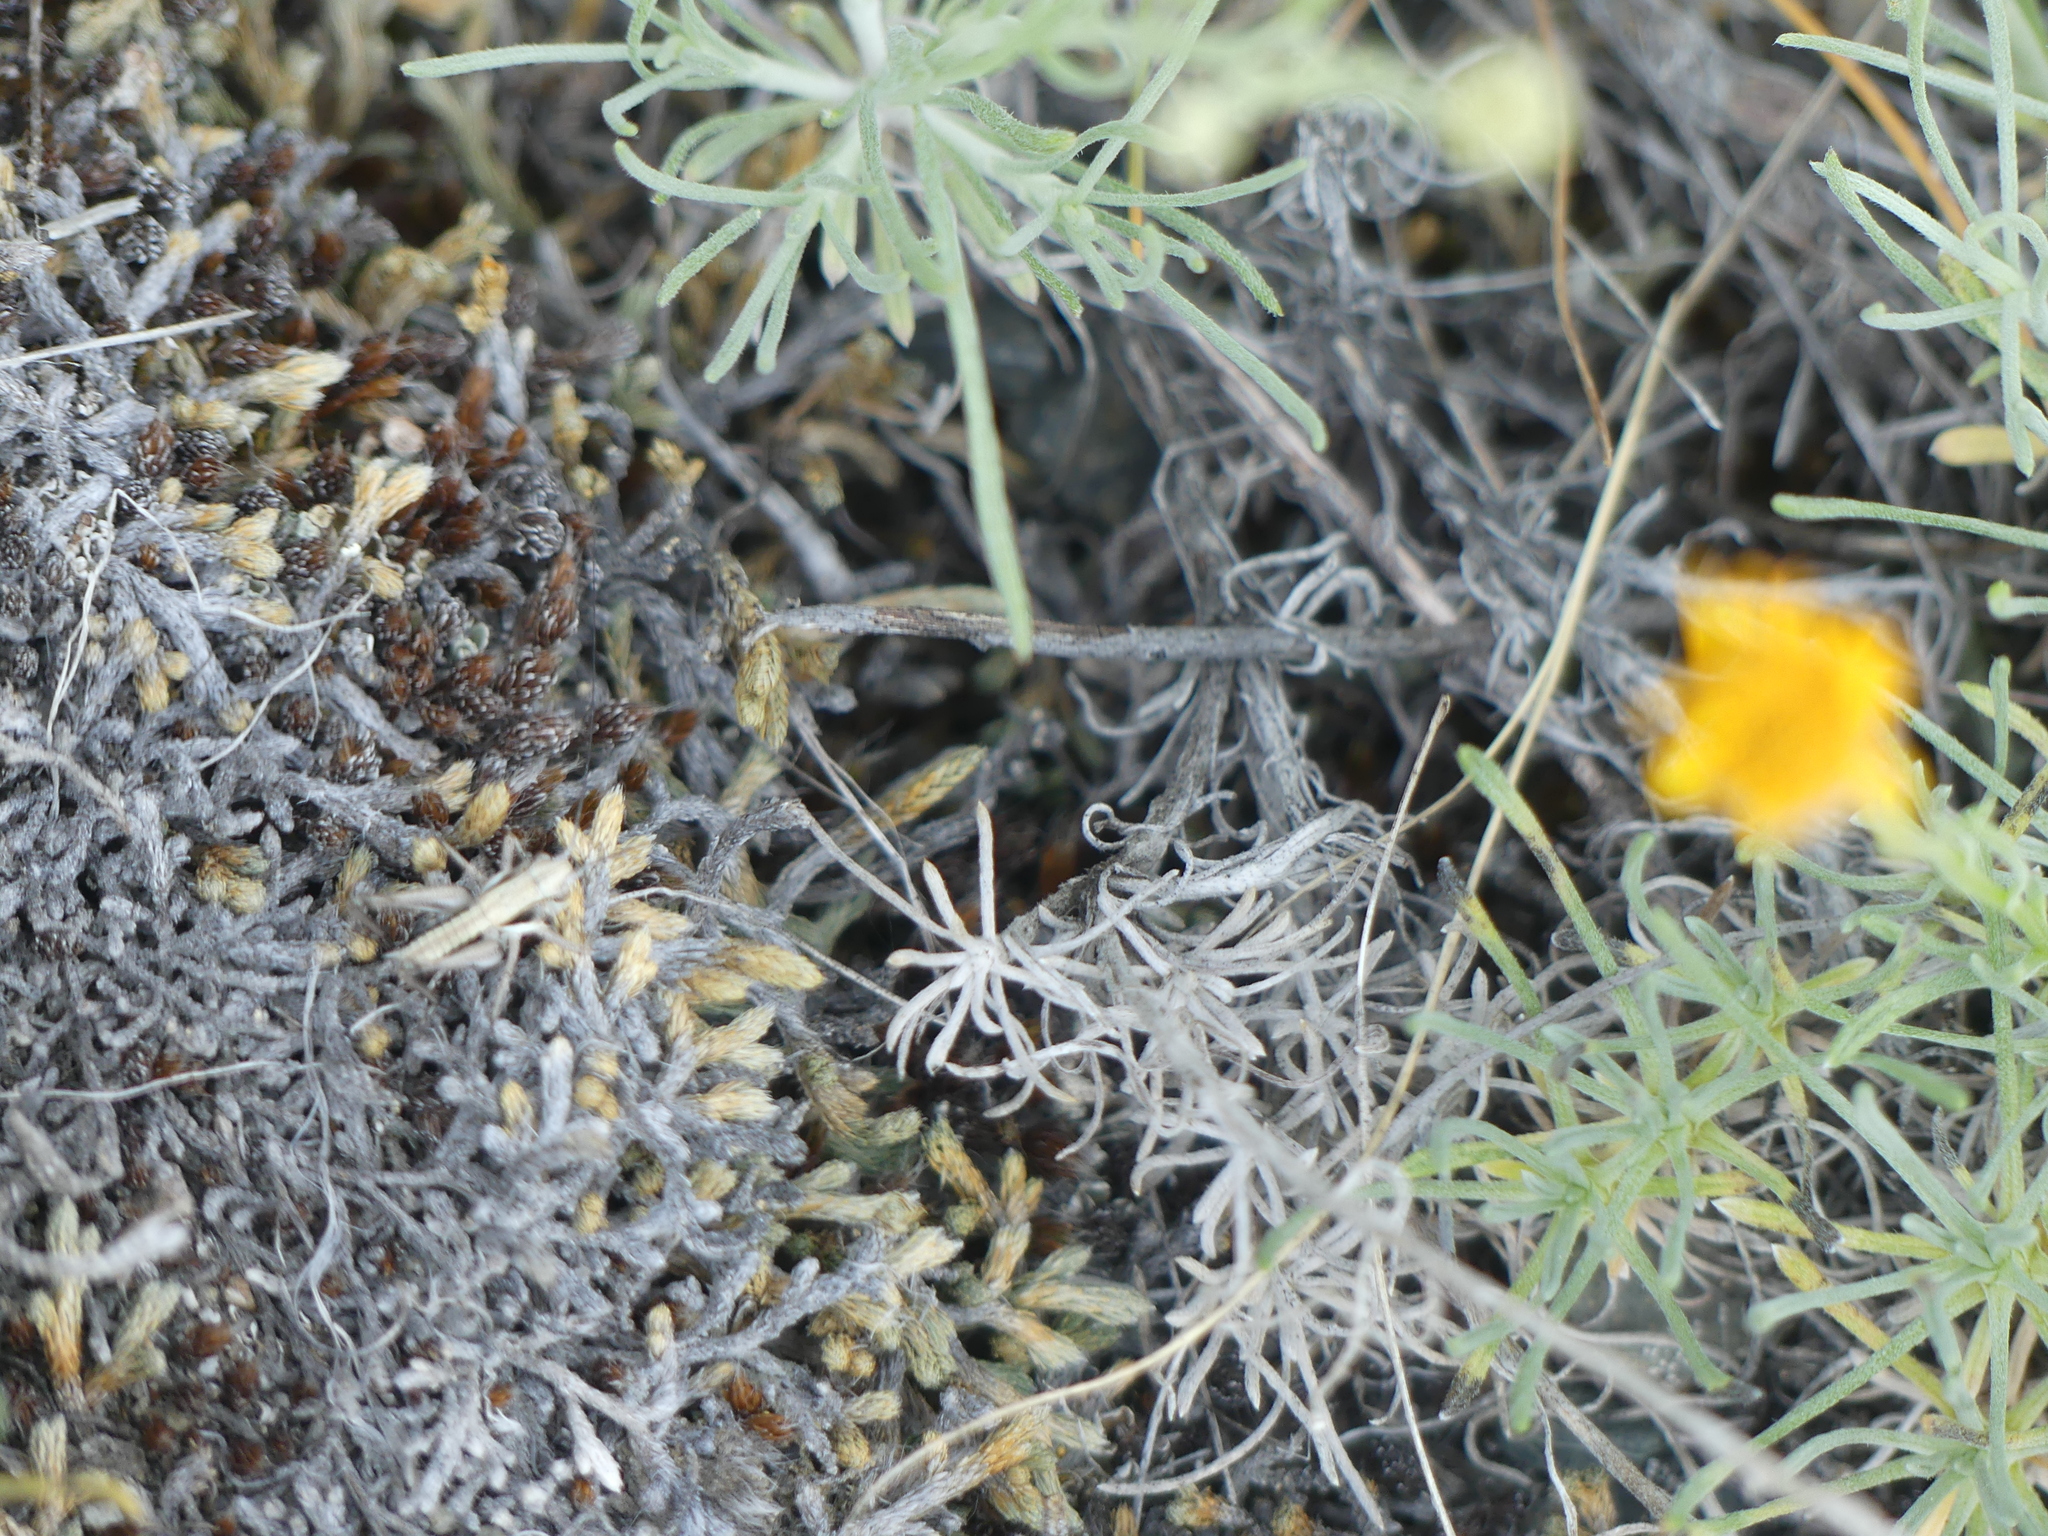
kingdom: Plantae
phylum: Tracheophyta
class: Lycopodiopsida
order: Selaginellales
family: Selaginellaceae
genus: Selaginella
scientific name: Selaginella wallacei
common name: Wallace's selaginella
